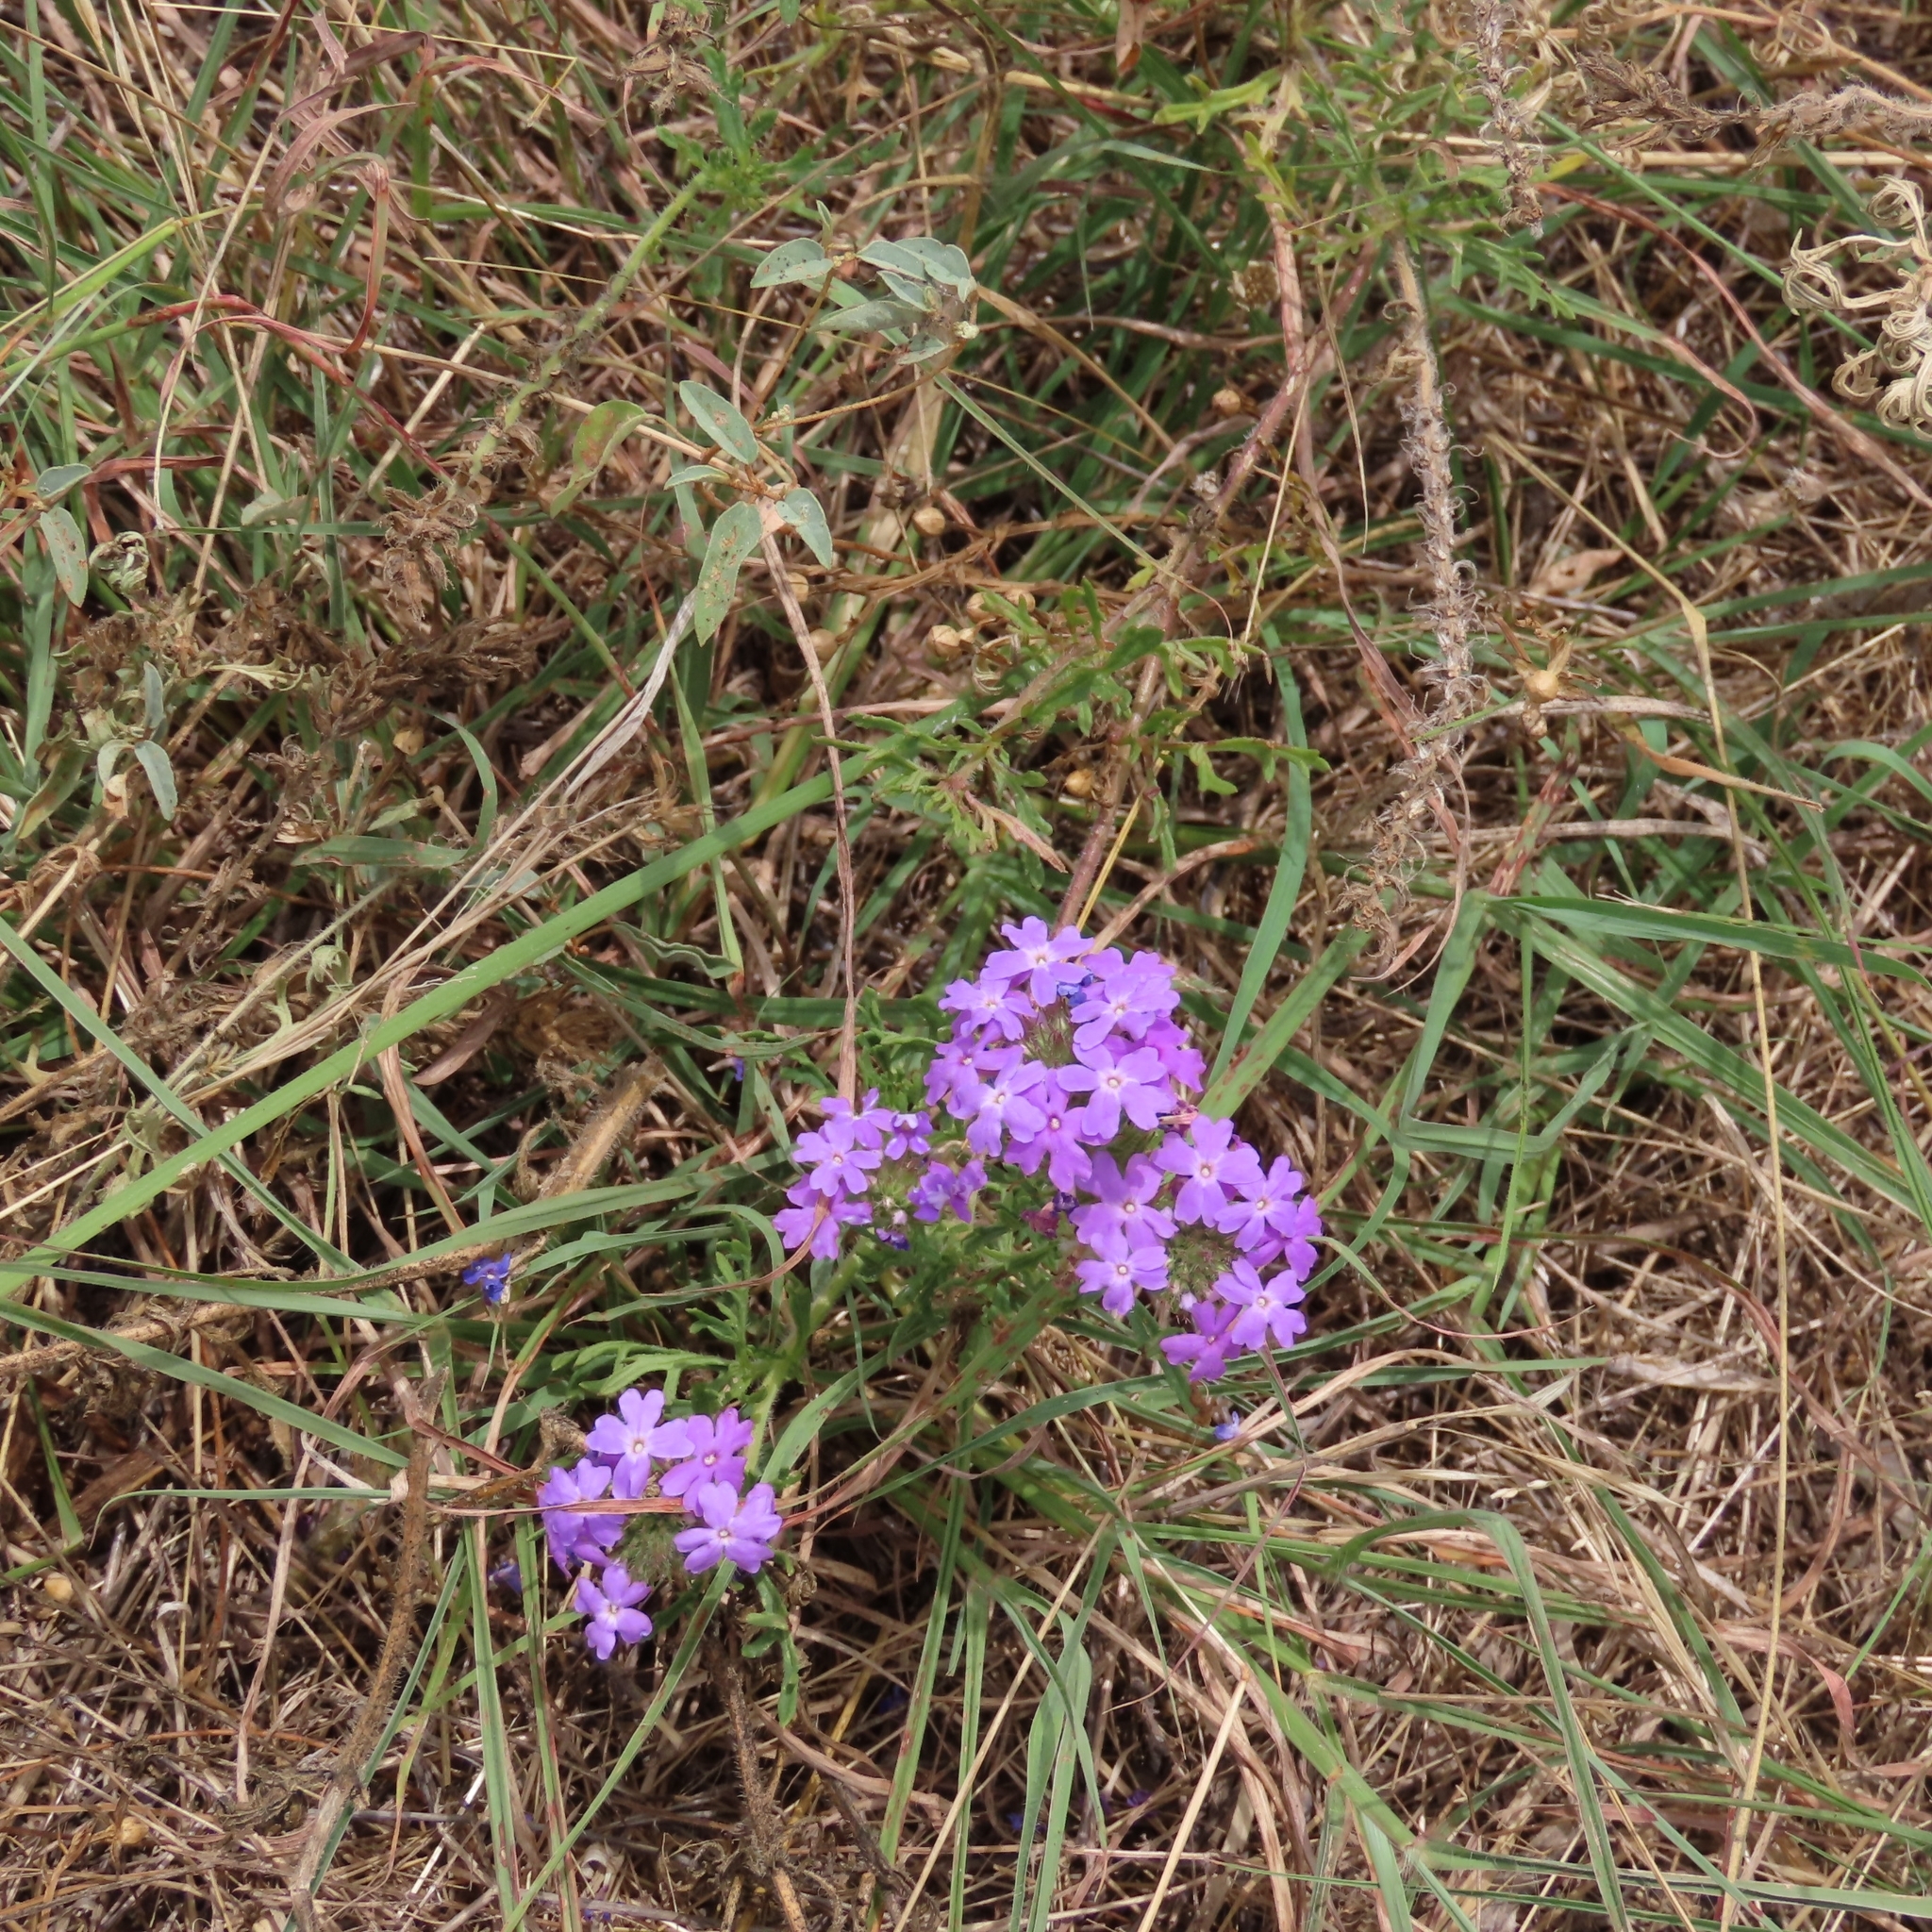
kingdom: Plantae
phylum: Tracheophyta
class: Magnoliopsida
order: Lamiales
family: Verbenaceae
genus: Verbena
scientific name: Verbena bipinnatifida
